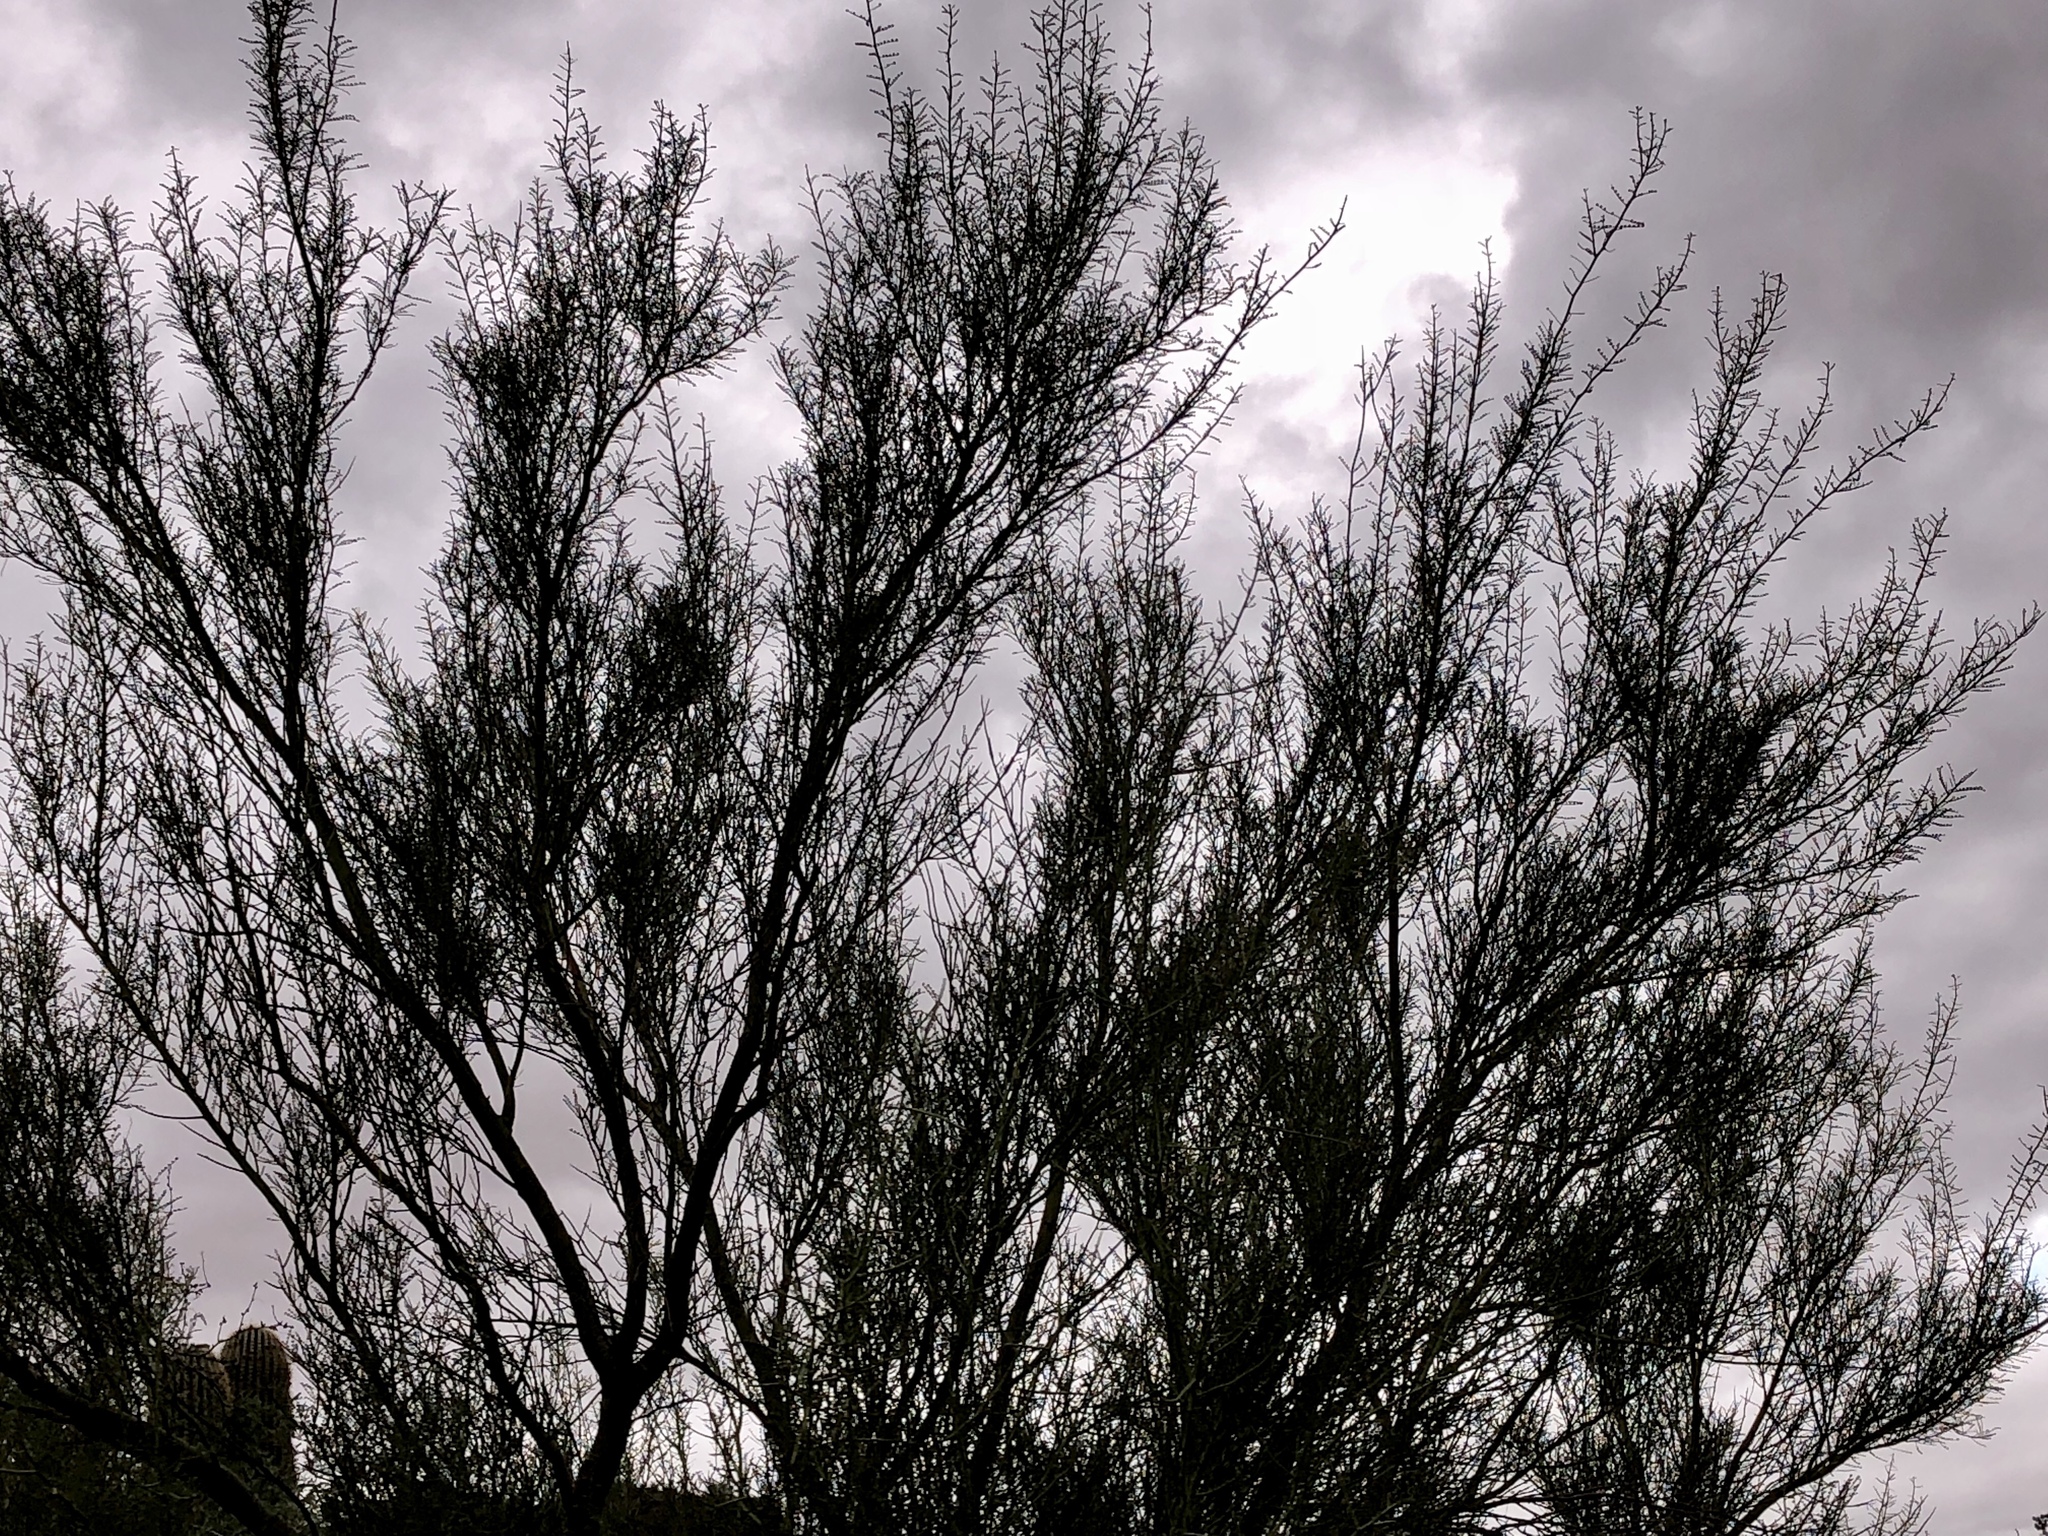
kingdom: Plantae
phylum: Tracheophyta
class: Magnoliopsida
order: Fabales
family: Fabaceae
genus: Parkinsonia
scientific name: Parkinsonia microphylla
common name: Yellow paloverde
